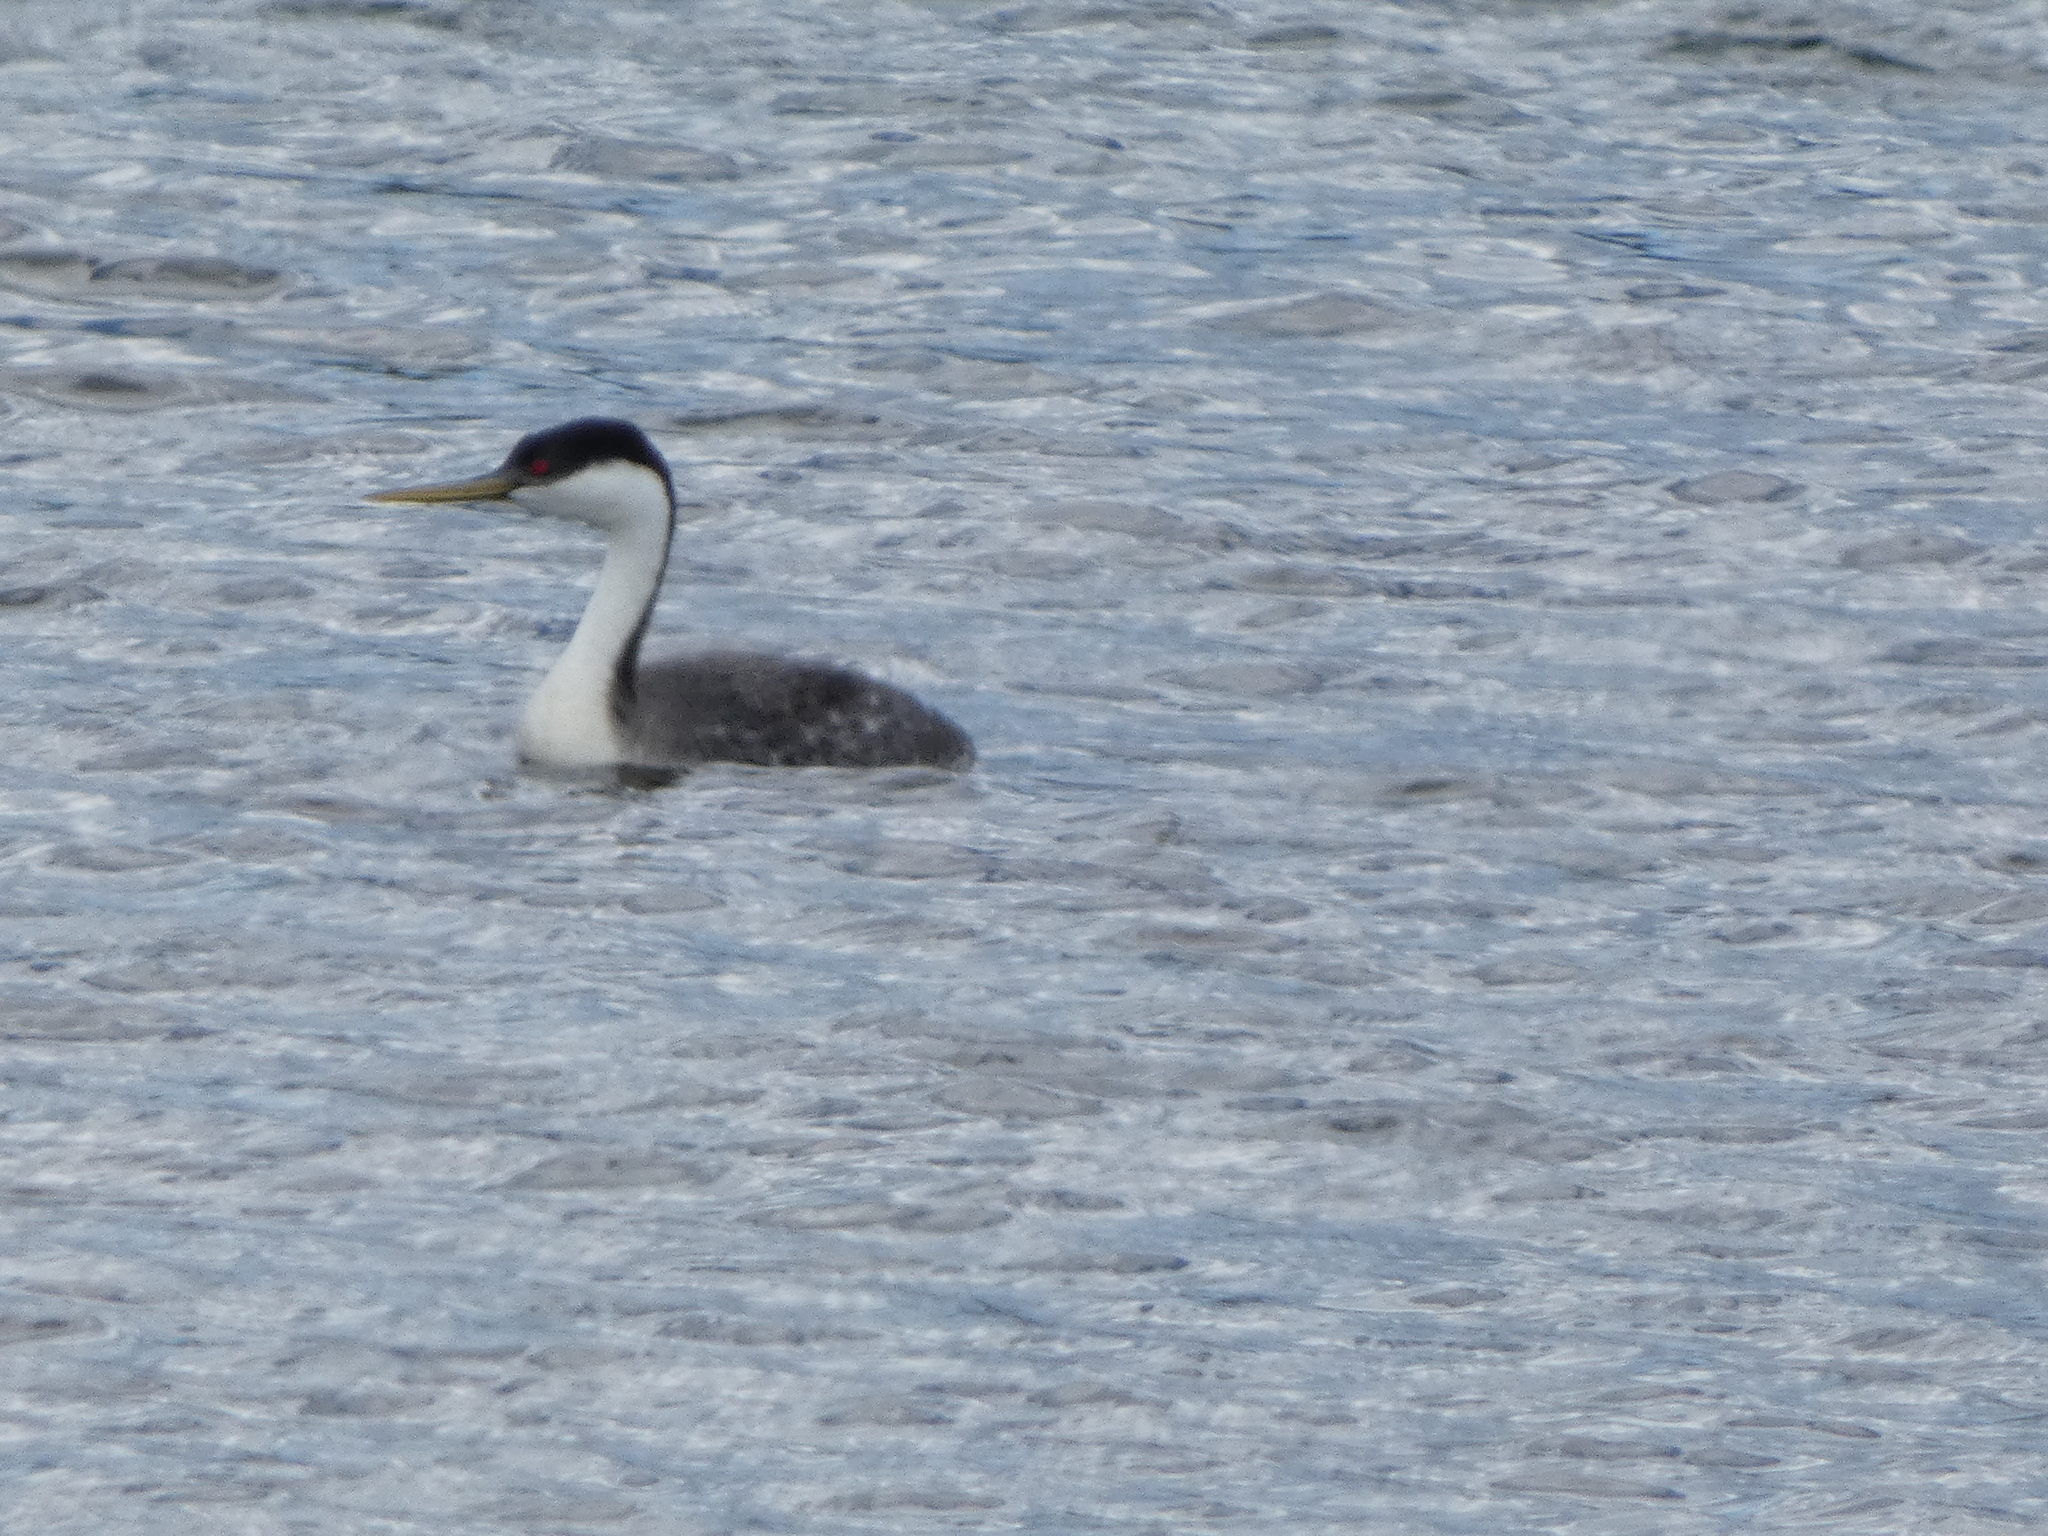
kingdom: Animalia
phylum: Chordata
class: Aves
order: Podicipediformes
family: Podicipedidae
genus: Aechmophorus
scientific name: Aechmophorus occidentalis
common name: Western grebe
